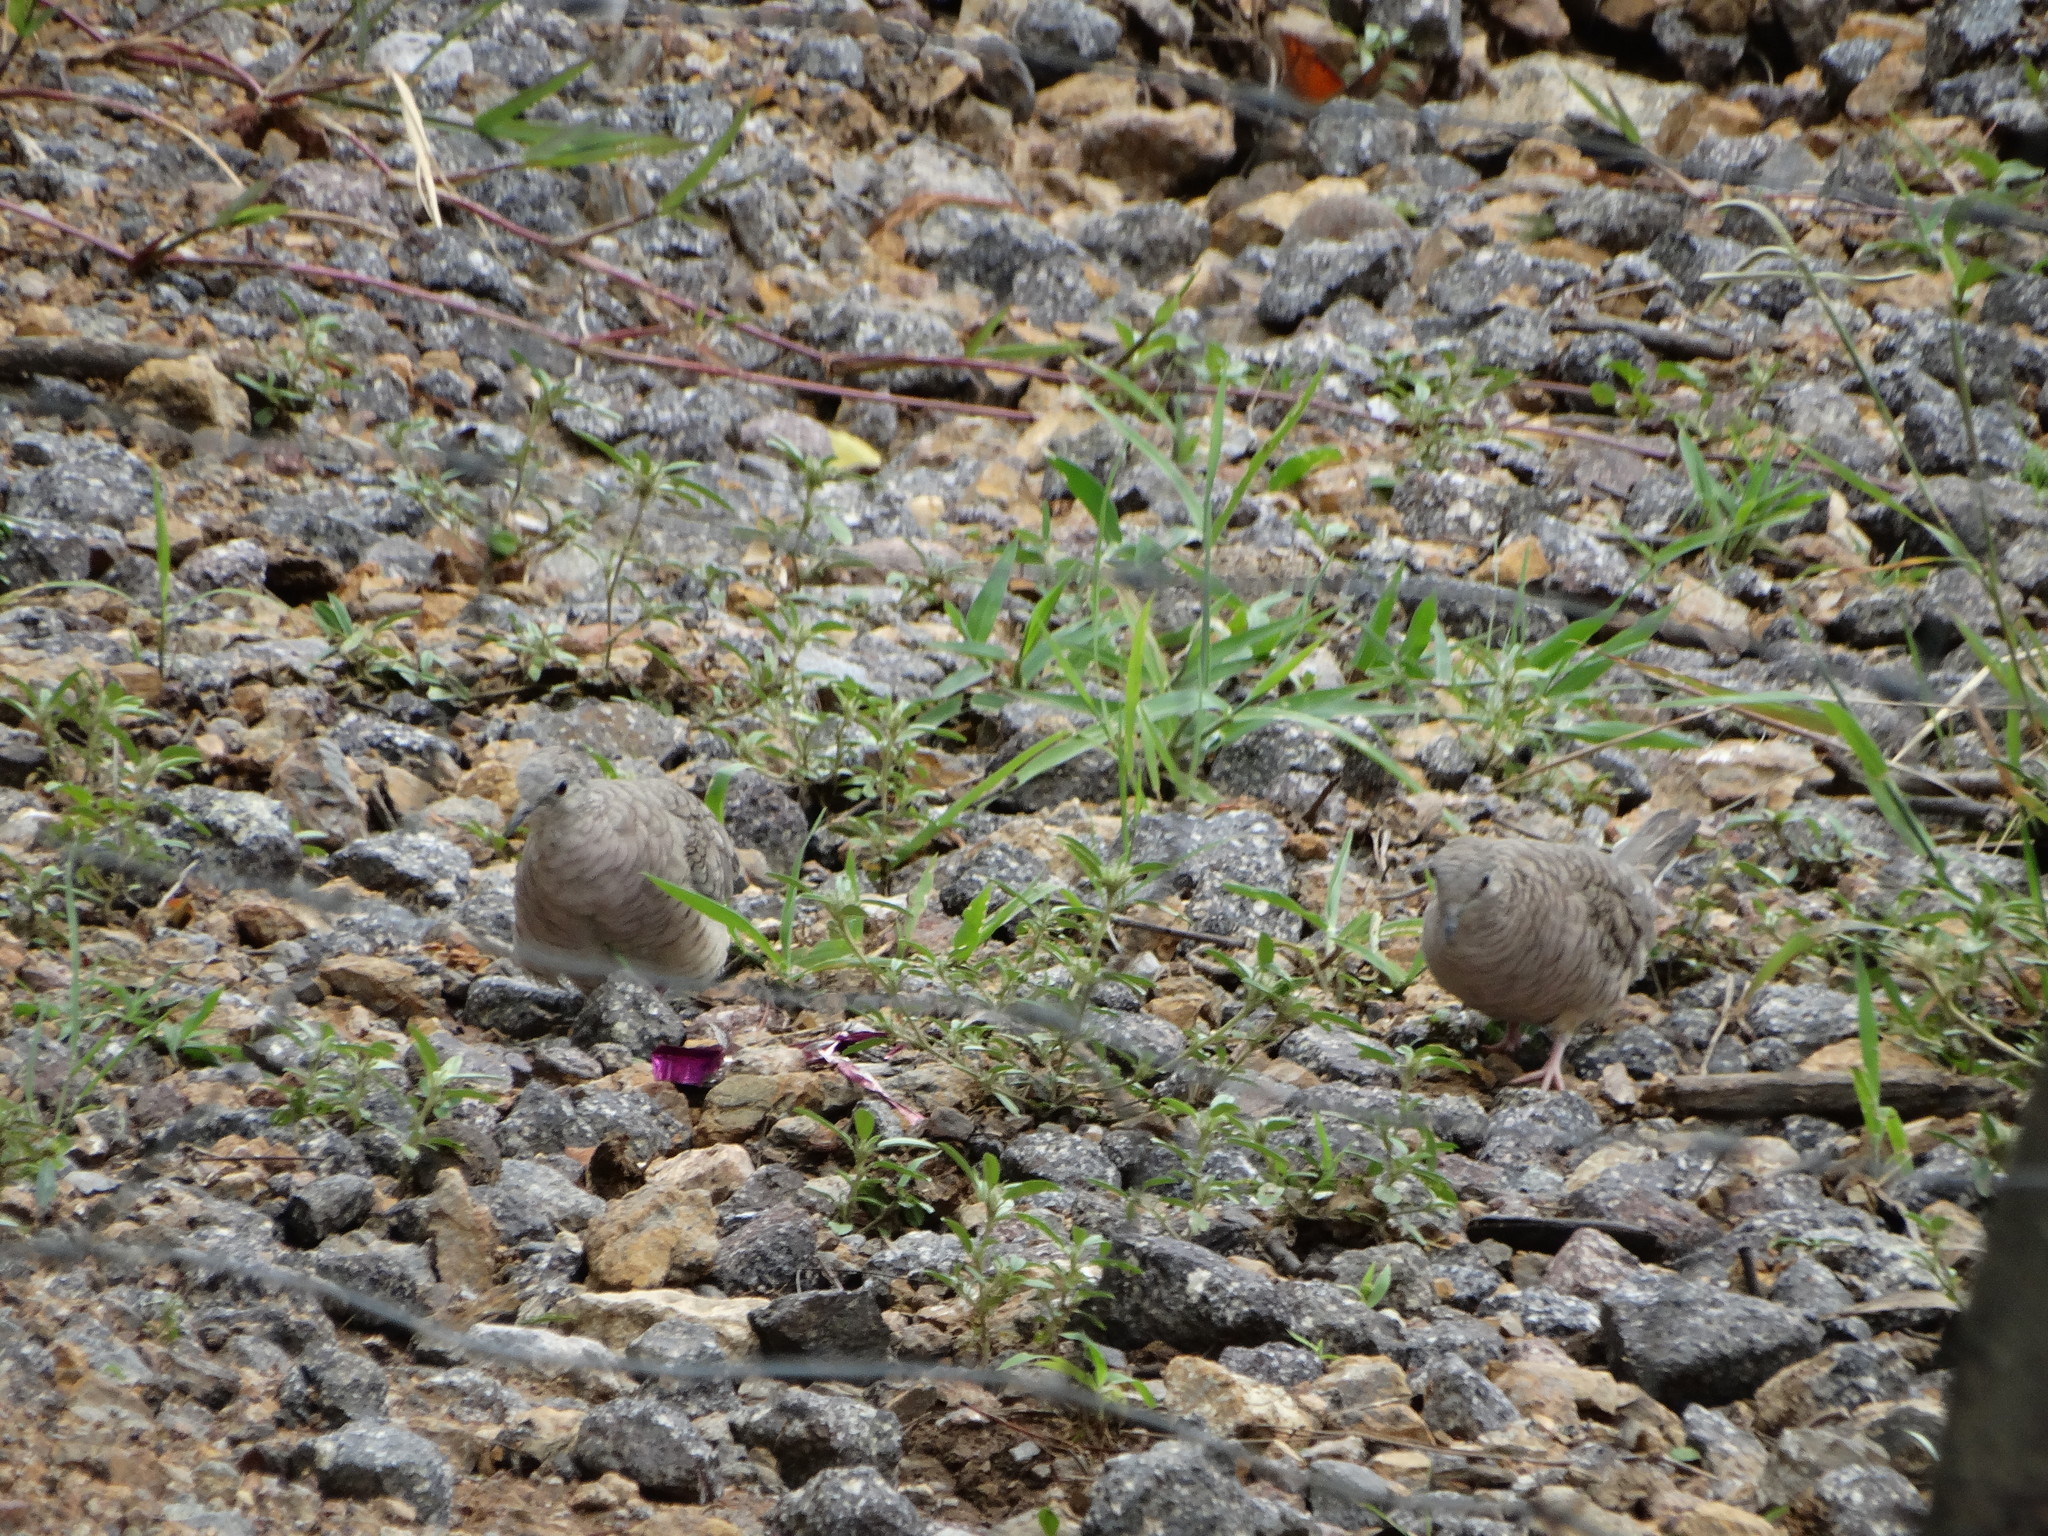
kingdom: Animalia
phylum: Chordata
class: Aves
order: Columbiformes
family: Columbidae
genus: Columbina
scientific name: Columbina inca
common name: Inca dove
